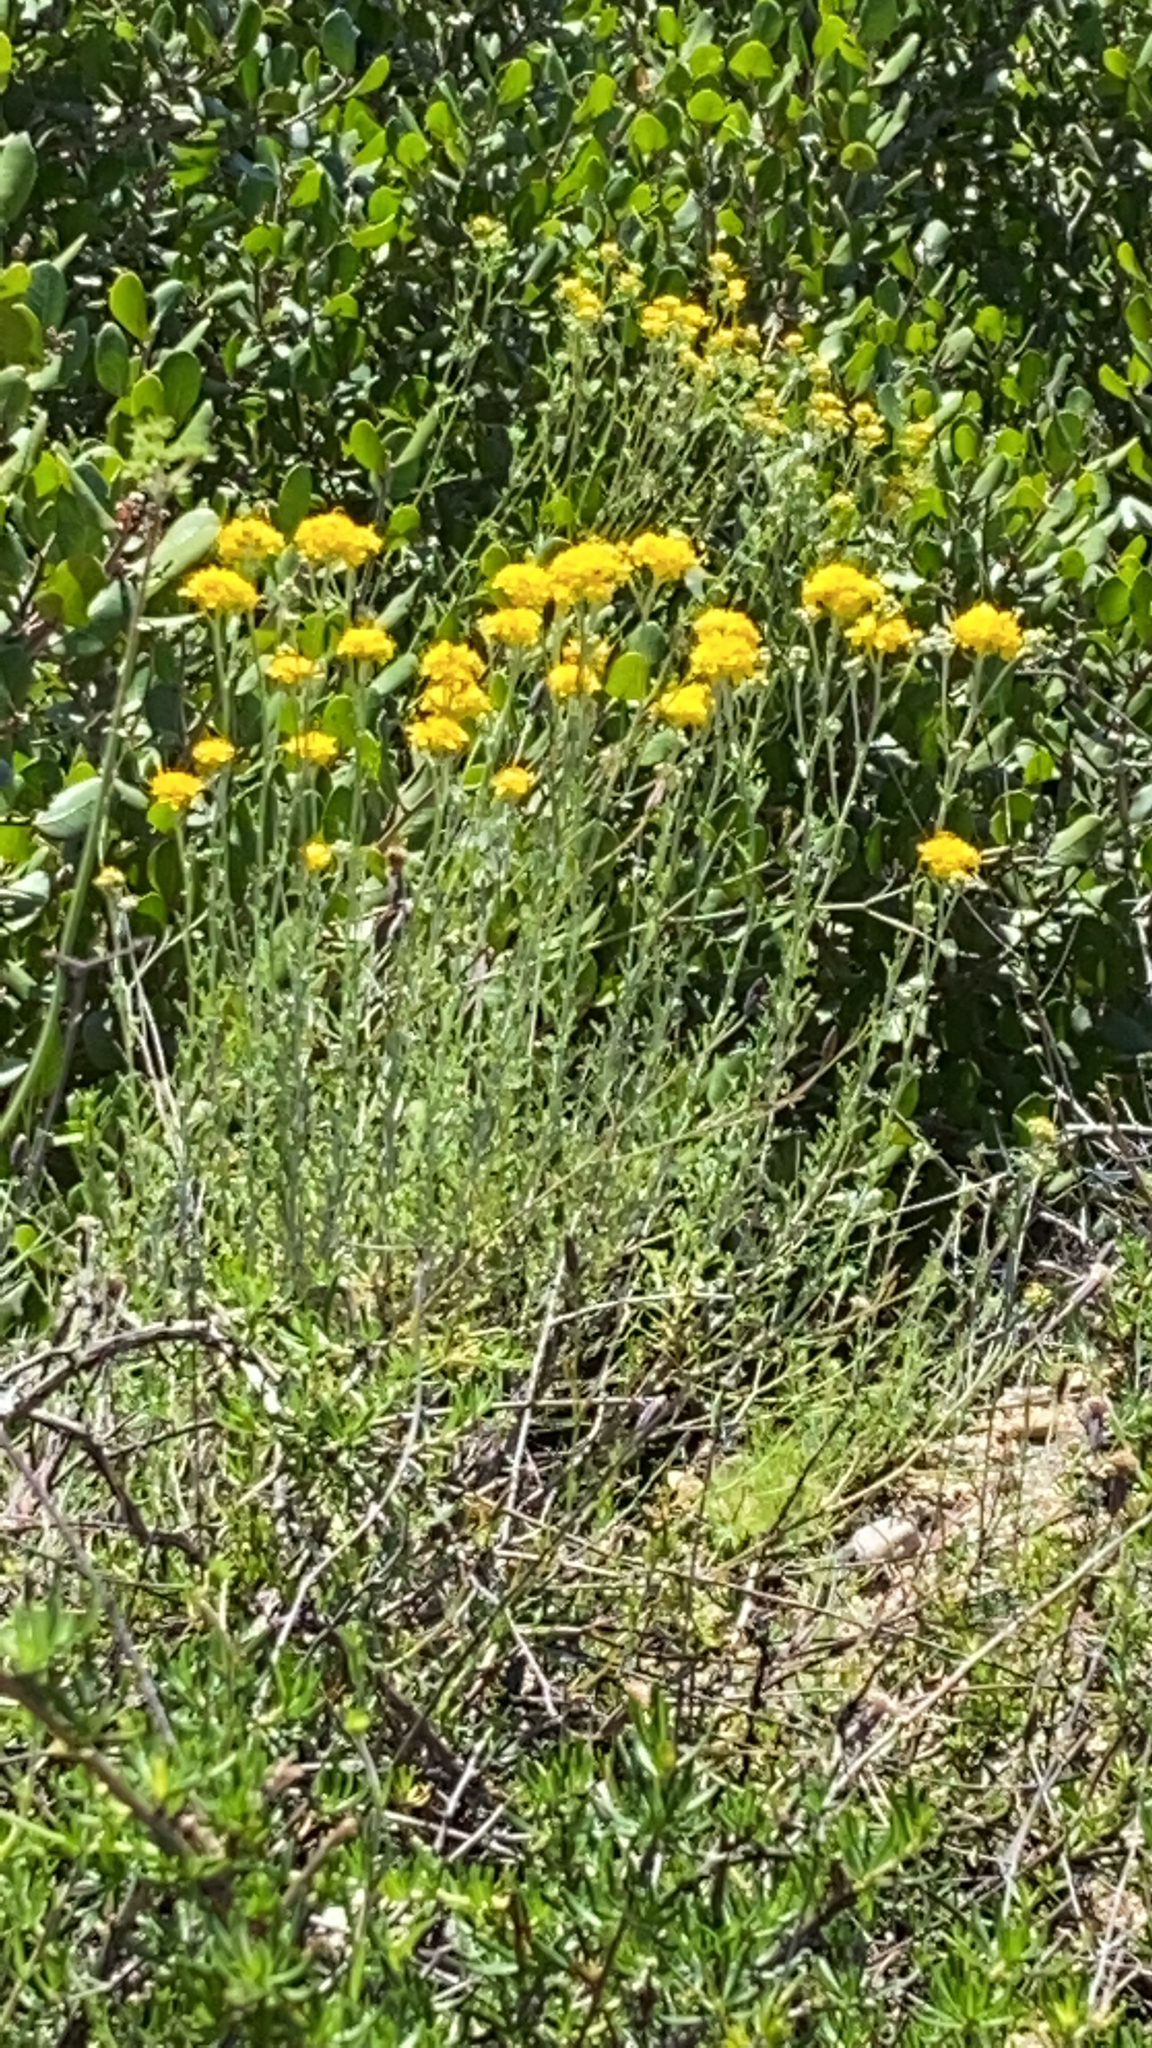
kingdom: Plantae
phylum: Tracheophyta
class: Magnoliopsida
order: Asterales
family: Asteraceae
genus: Eriophyllum
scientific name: Eriophyllum confertiflorum
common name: Golden-yarrow
